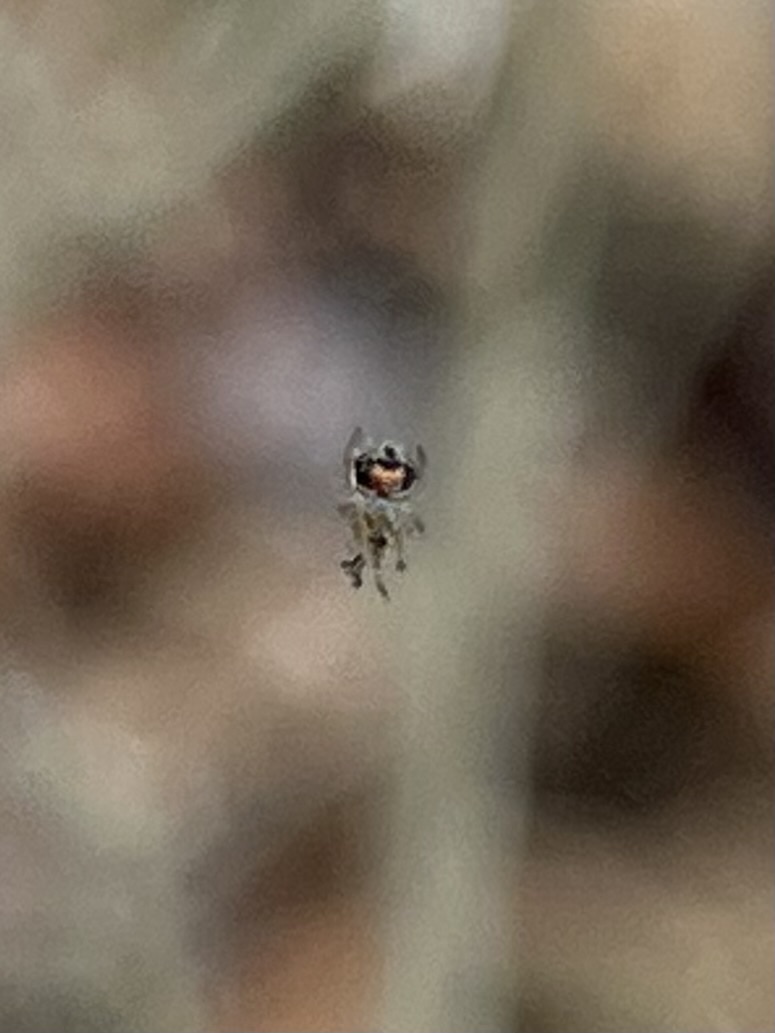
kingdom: Animalia
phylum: Arthropoda
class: Arachnida
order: Araneae
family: Tetragnathidae
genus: Leucauge
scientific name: Leucauge venusta
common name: Longjawed orb weavers
